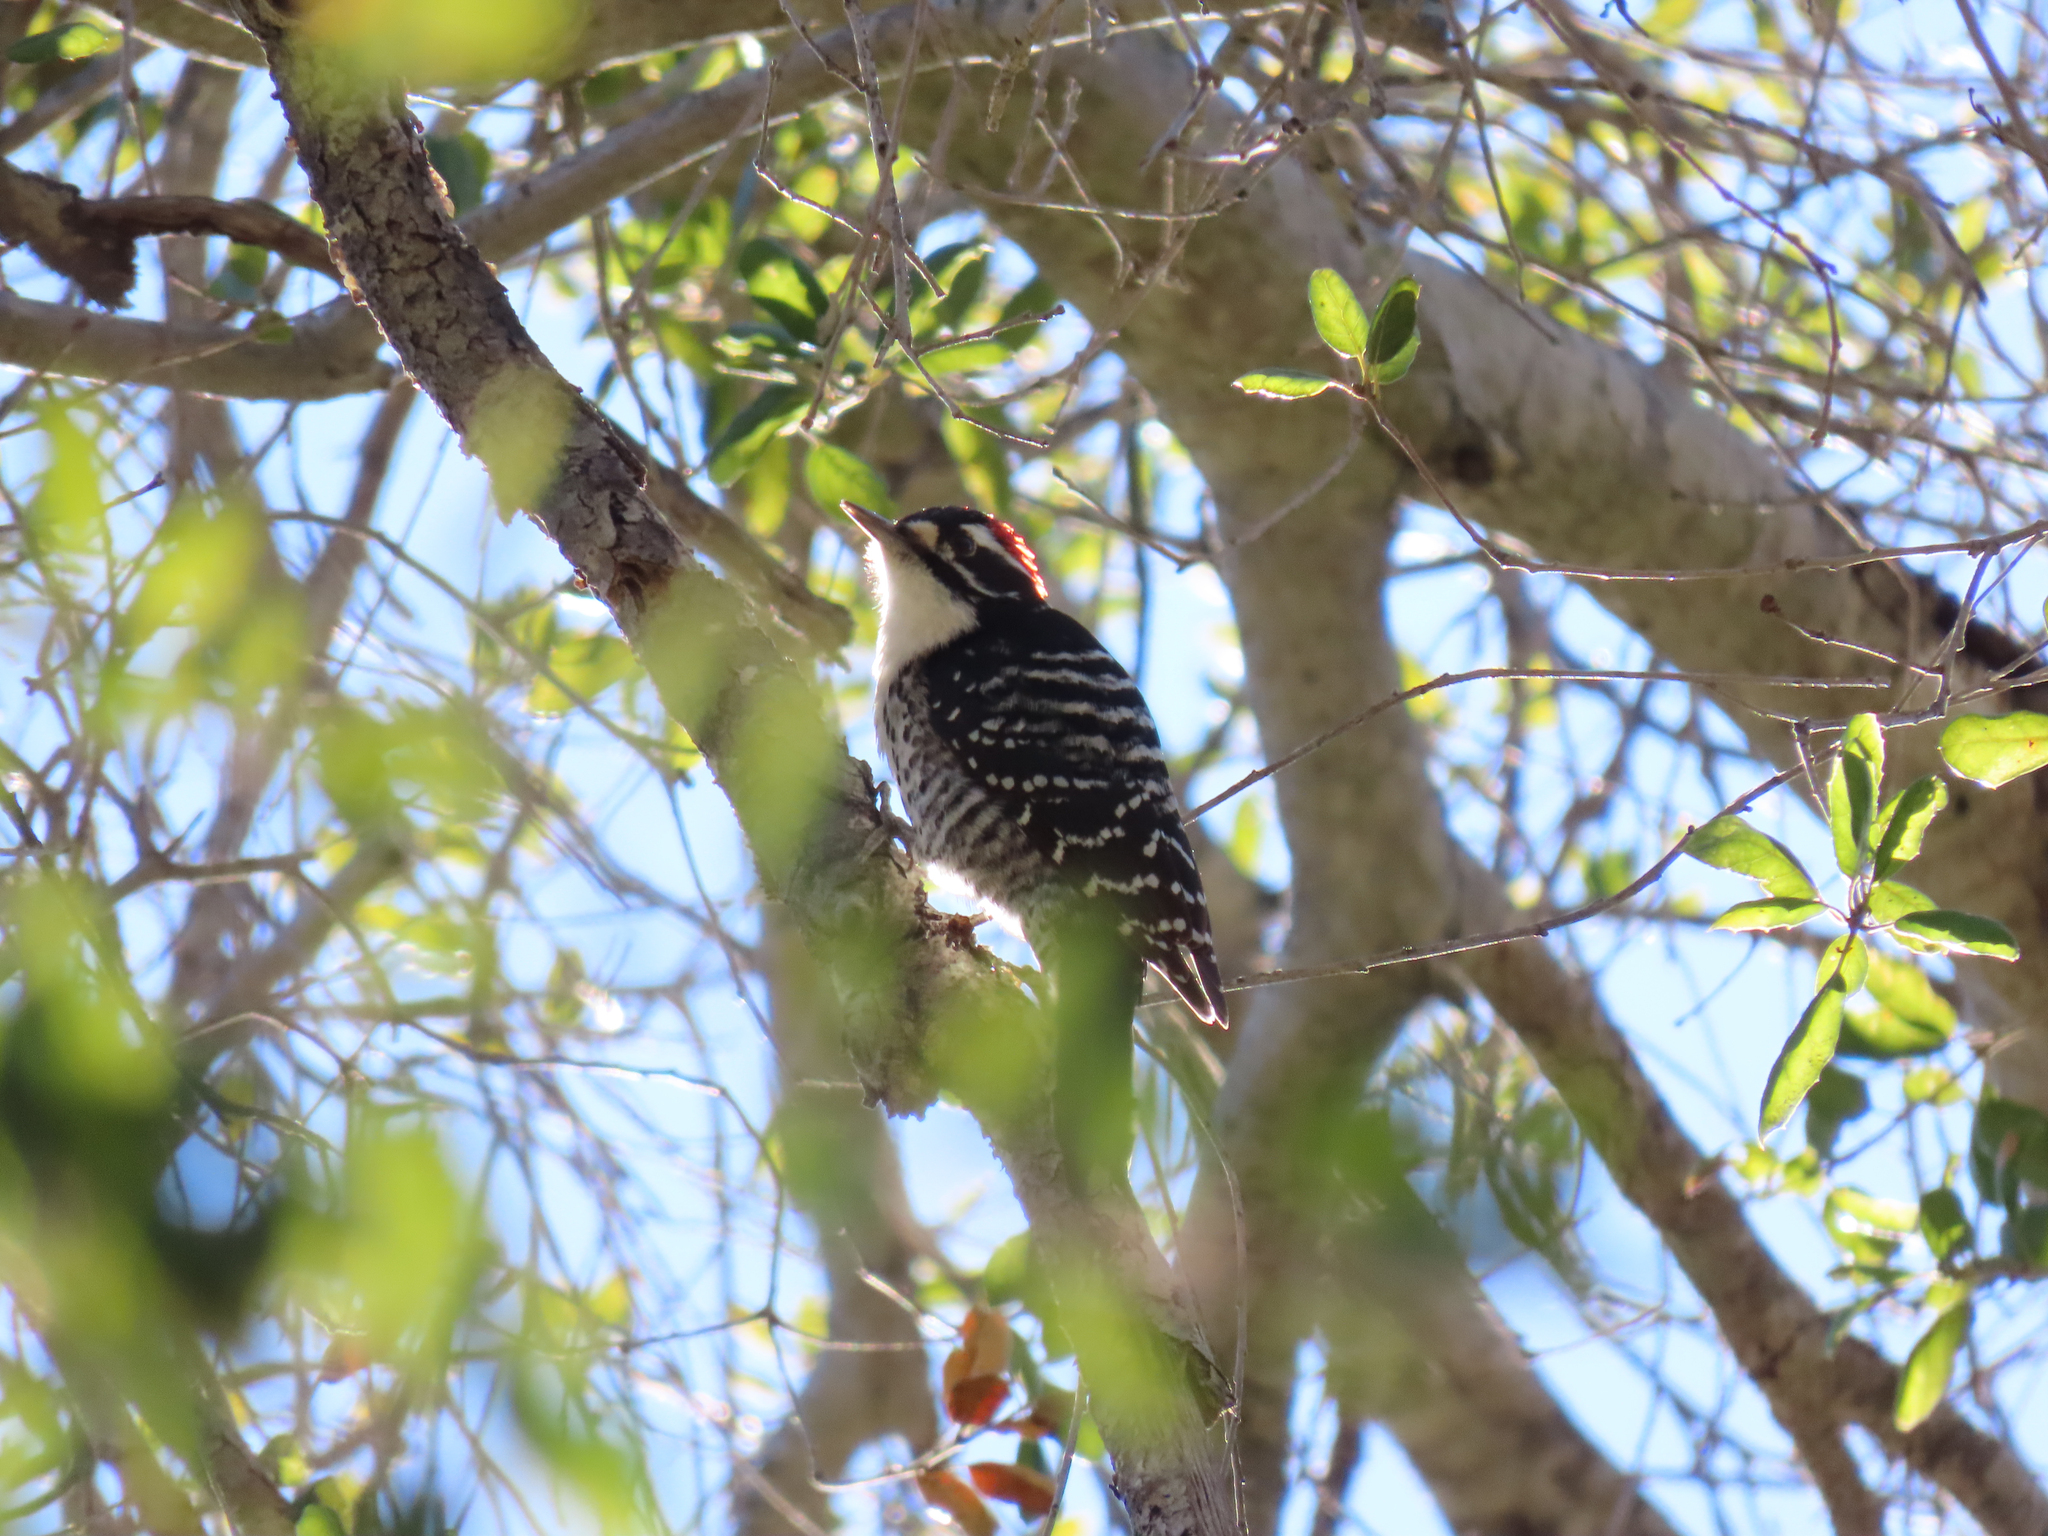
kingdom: Animalia
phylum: Chordata
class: Aves
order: Piciformes
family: Picidae
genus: Dryobates
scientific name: Dryobates nuttallii
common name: Nuttall's woodpecker
